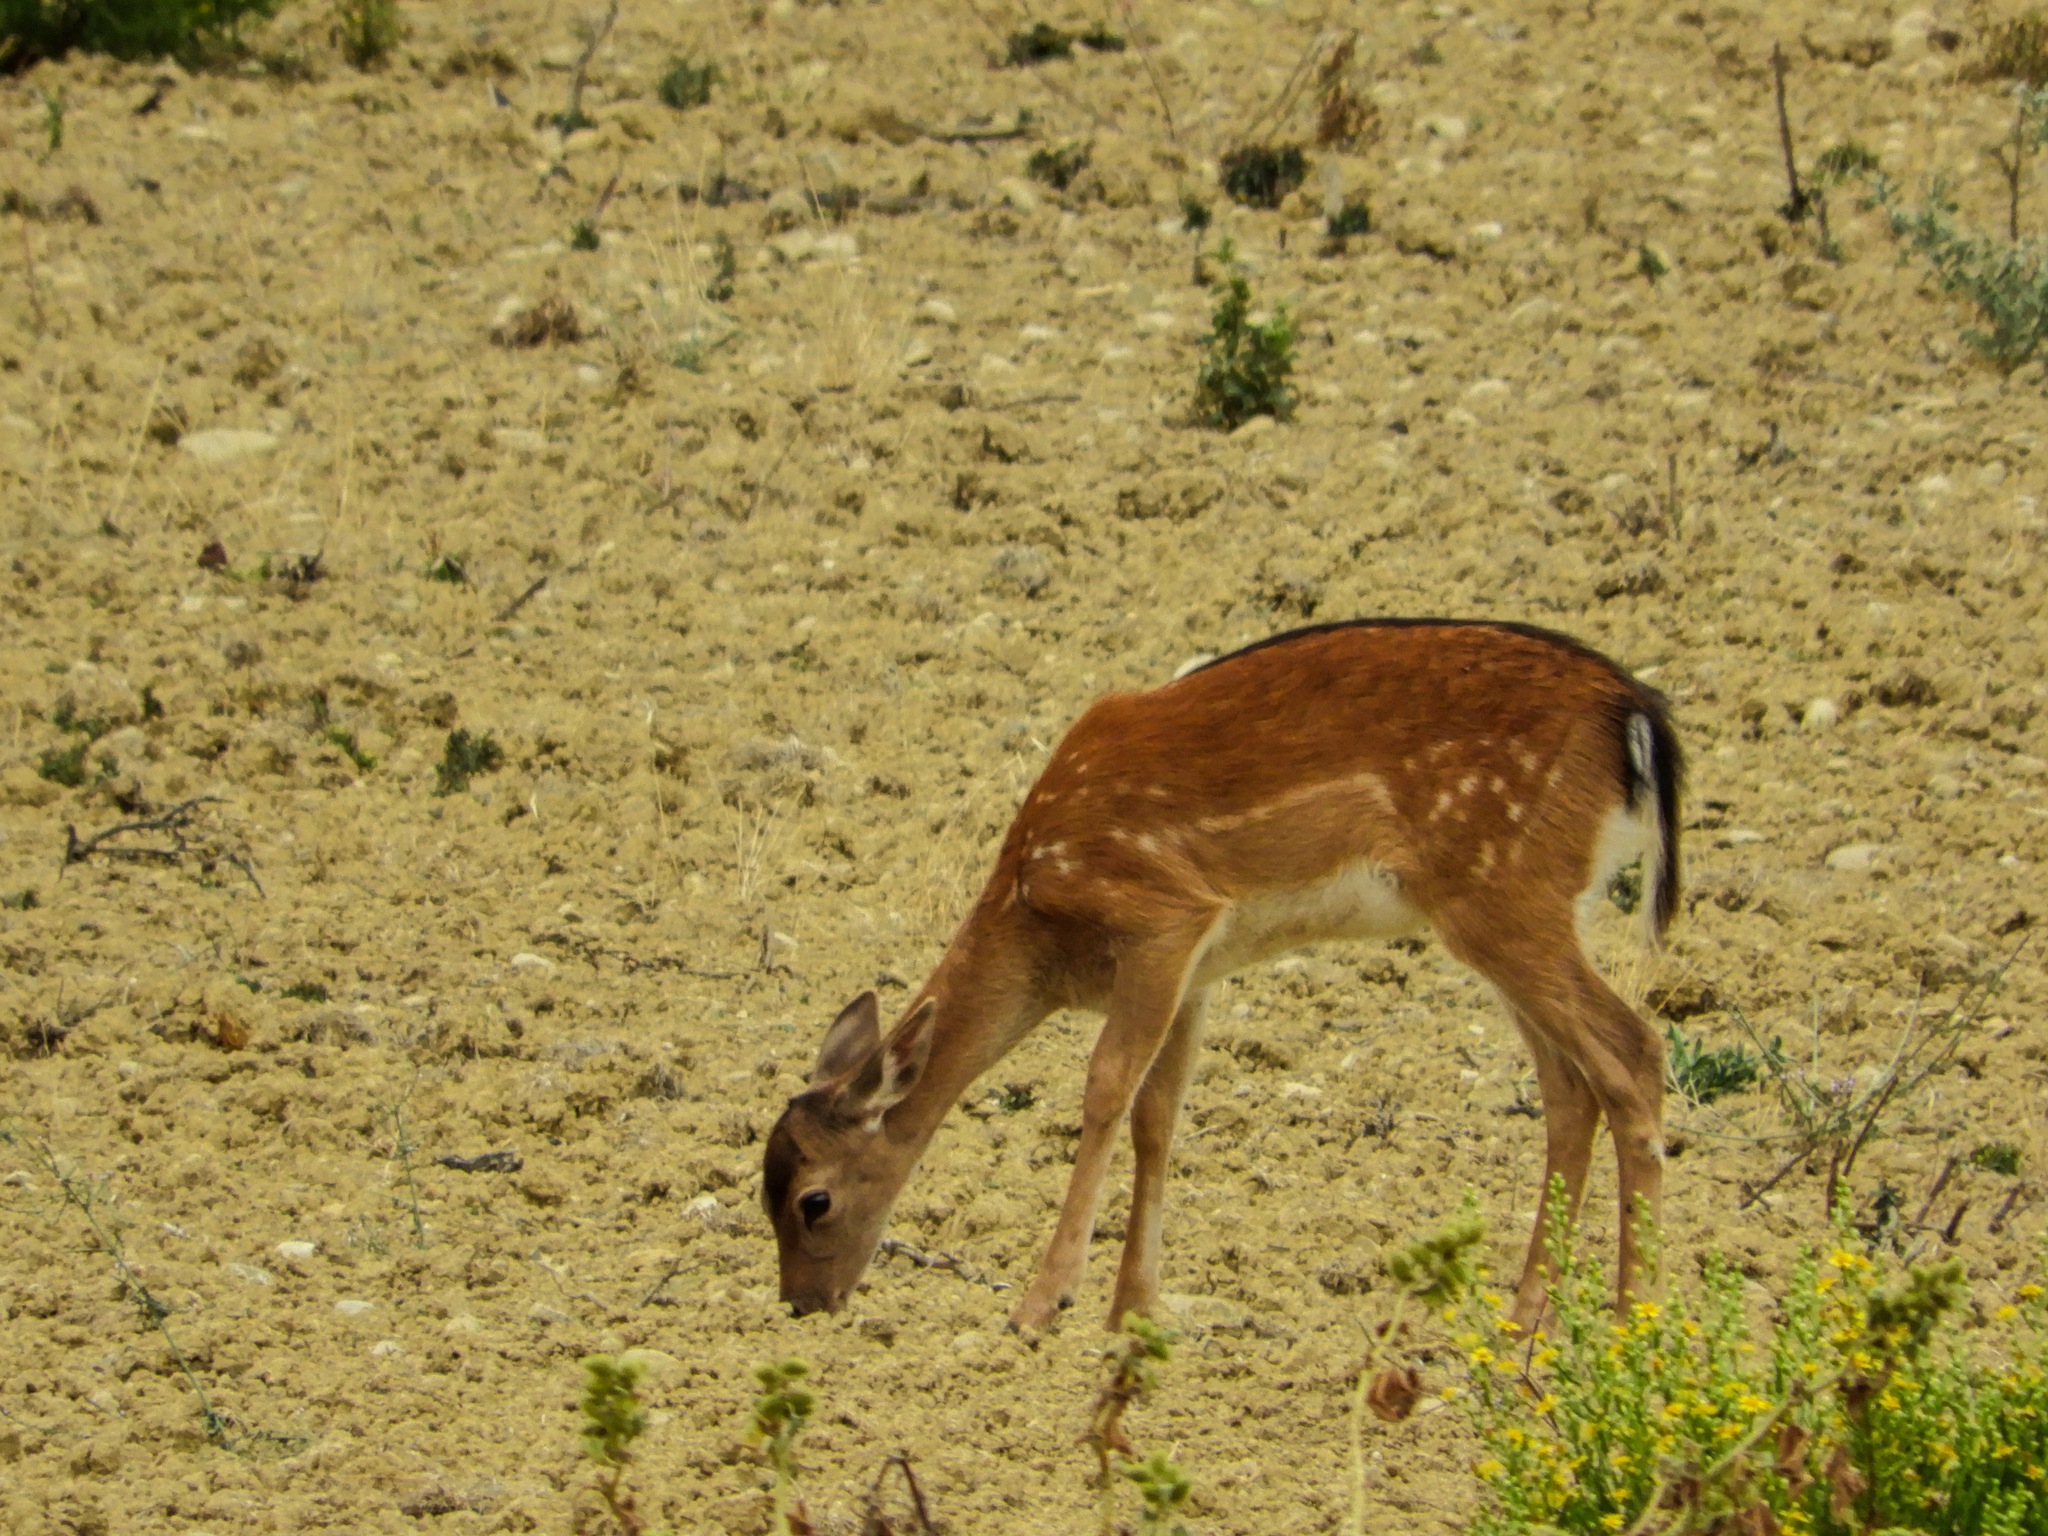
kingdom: Animalia
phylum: Chordata
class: Mammalia
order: Artiodactyla
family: Cervidae
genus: Dama
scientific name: Dama dama
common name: Fallow deer
